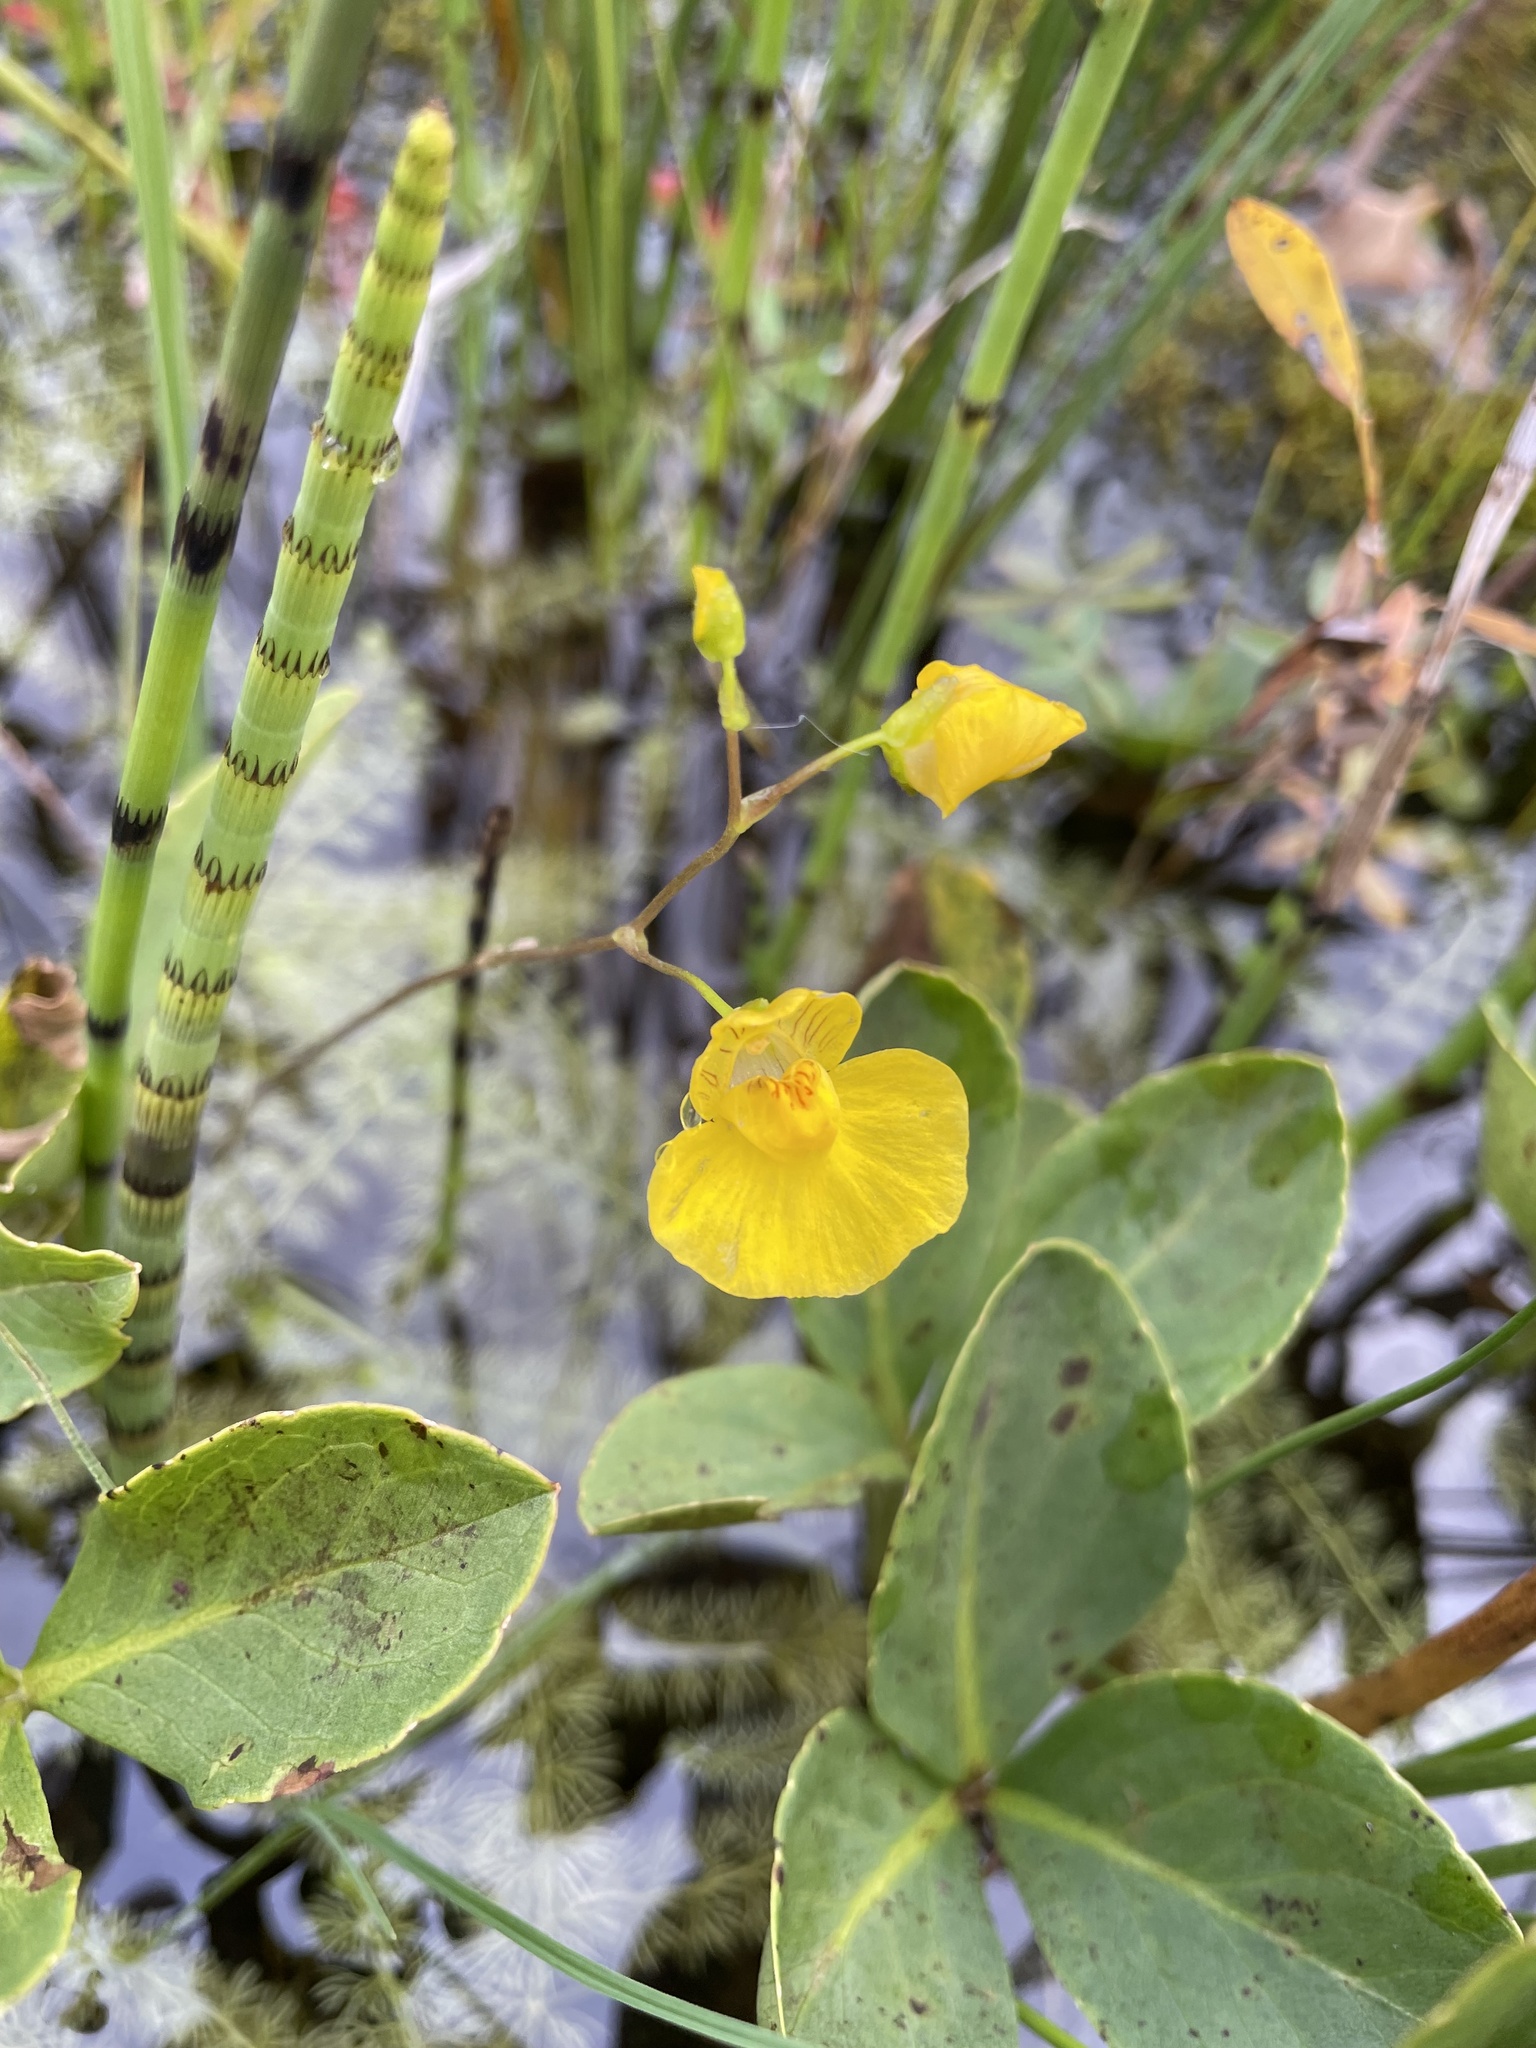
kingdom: Plantae
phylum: Tracheophyta
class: Magnoliopsida
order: Lamiales
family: Lentibulariaceae
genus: Utricularia
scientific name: Utricularia intermedia
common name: Intermediate bladderwort
